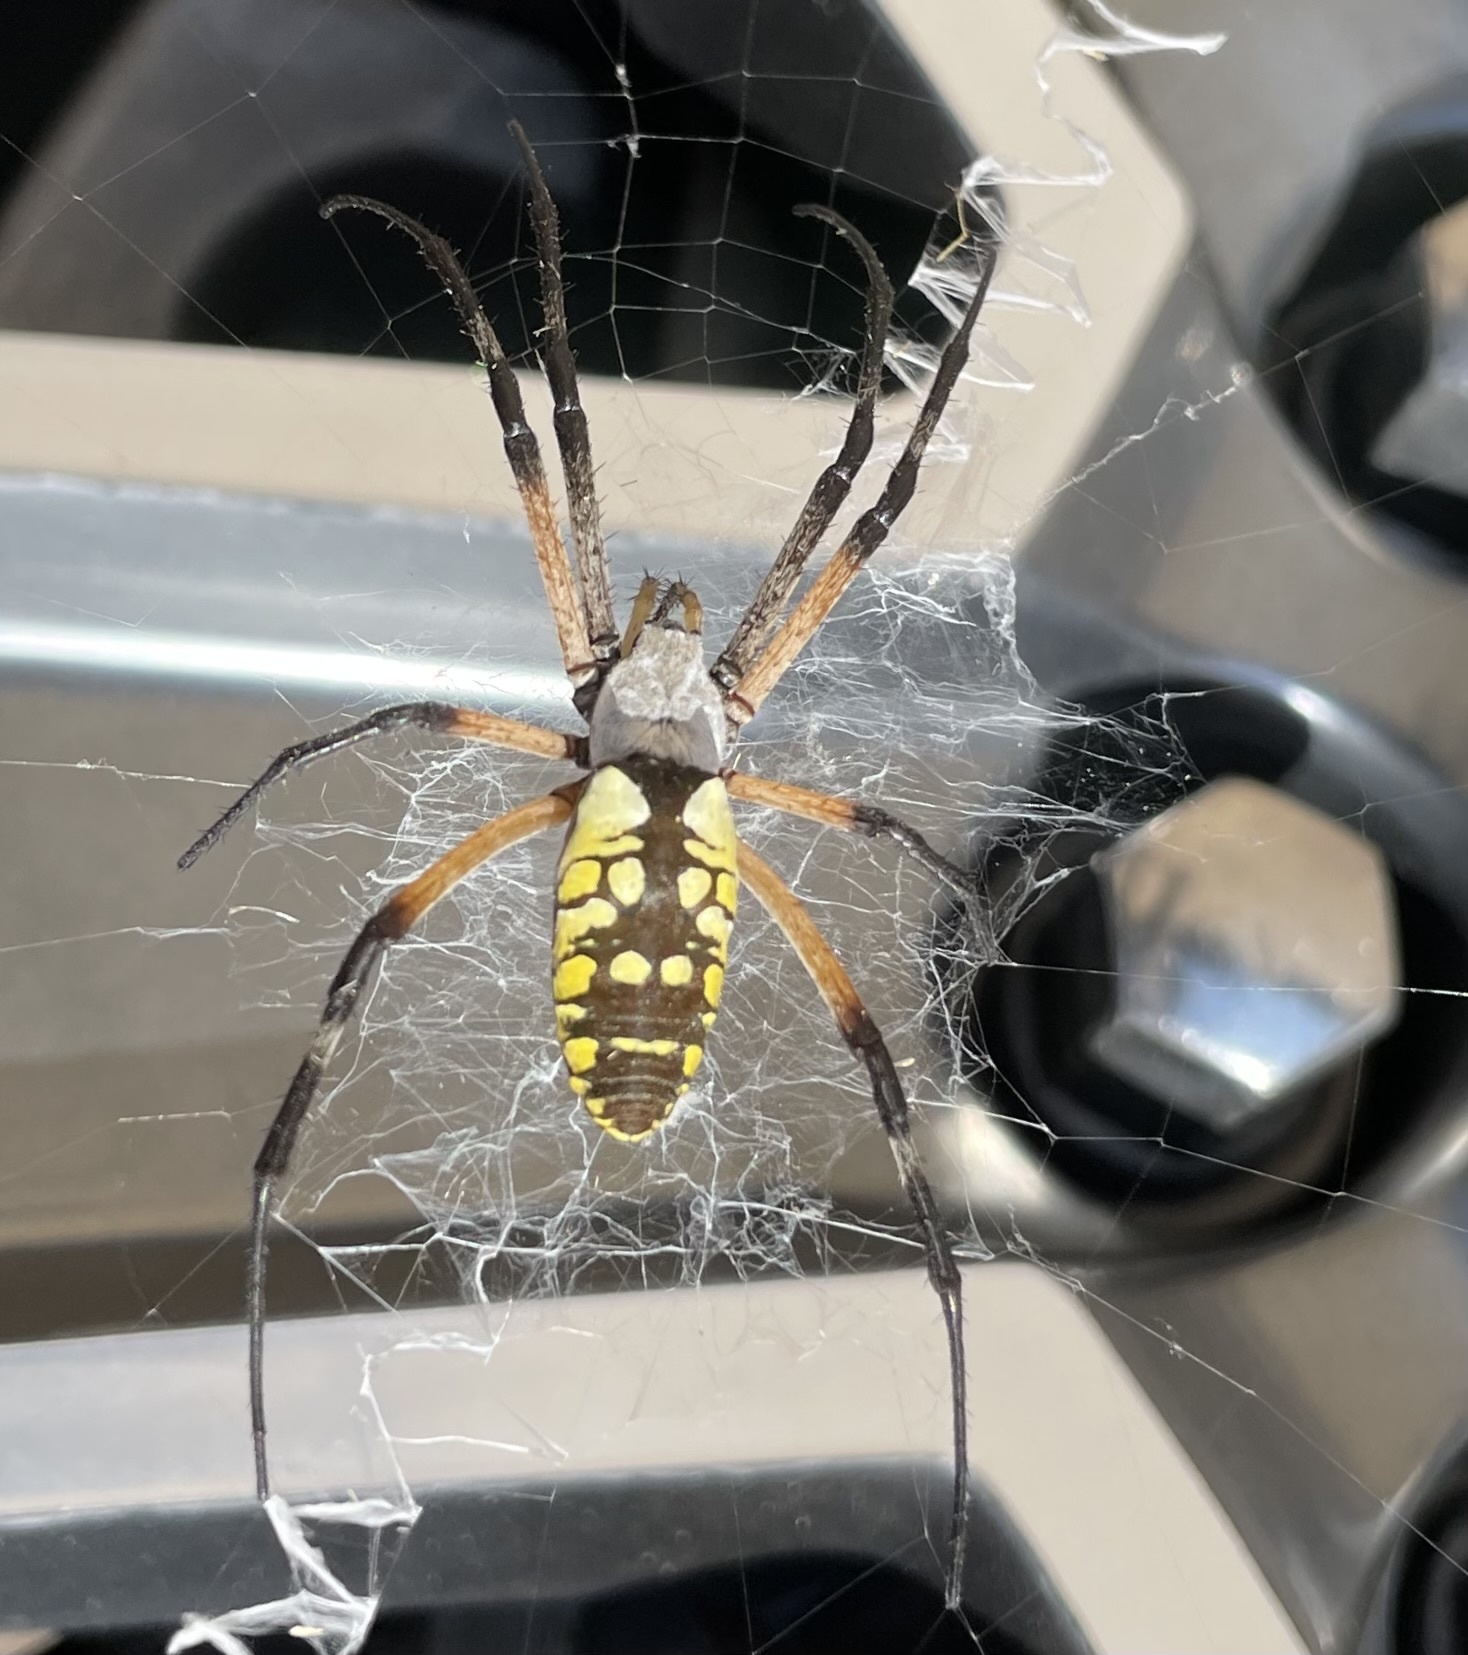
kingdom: Animalia
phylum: Arthropoda
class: Arachnida
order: Araneae
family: Araneidae
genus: Argiope
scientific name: Argiope aurantia
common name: Orb weavers
